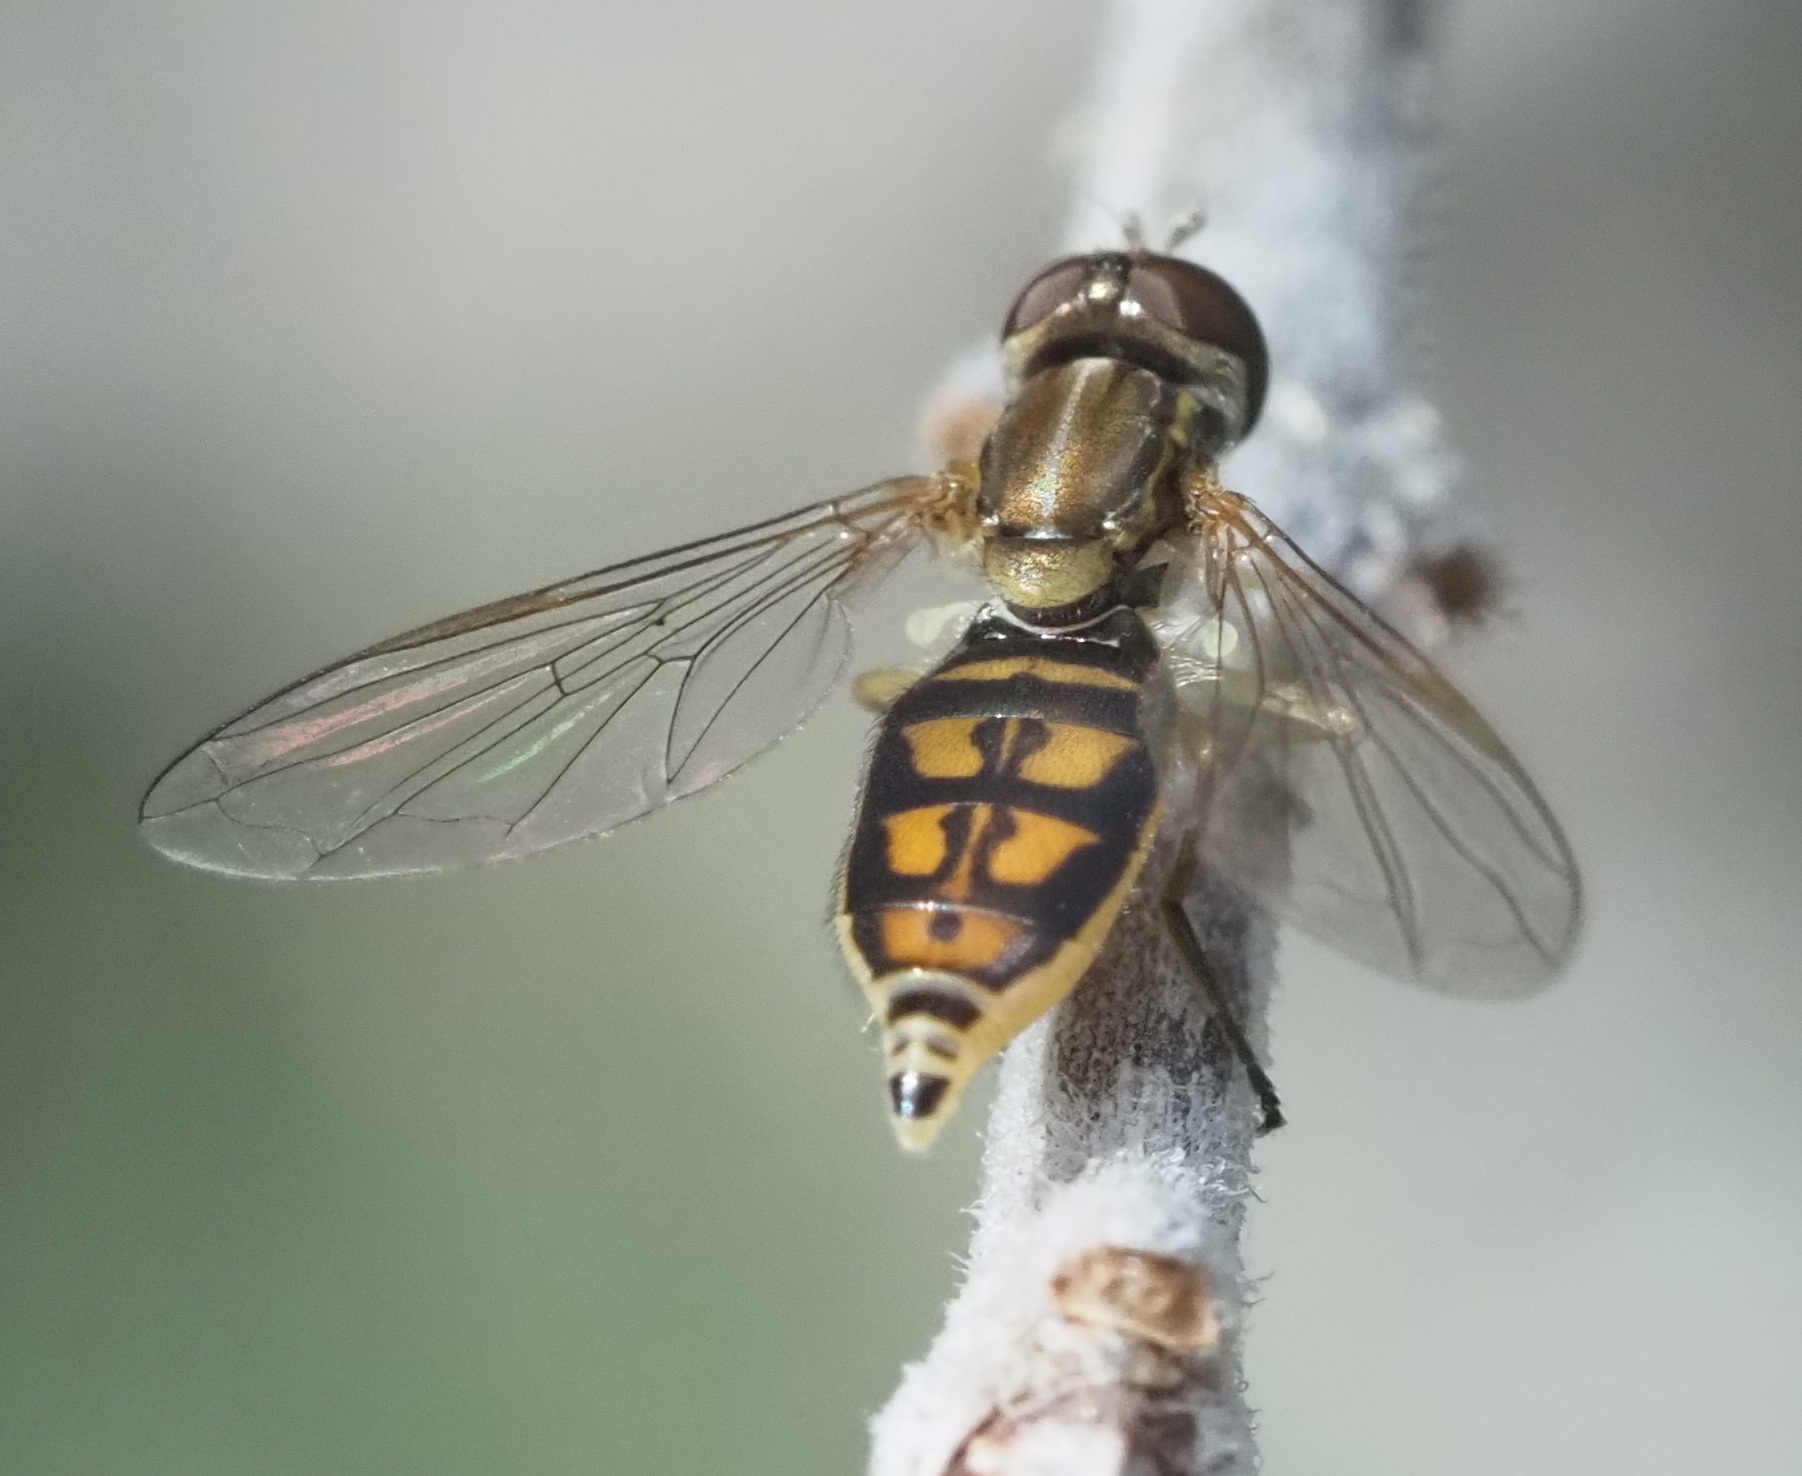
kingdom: Animalia
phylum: Arthropoda
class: Insecta
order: Diptera
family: Syrphidae
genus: Toxomerus
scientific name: Toxomerus marginatus
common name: Syrphid fly
